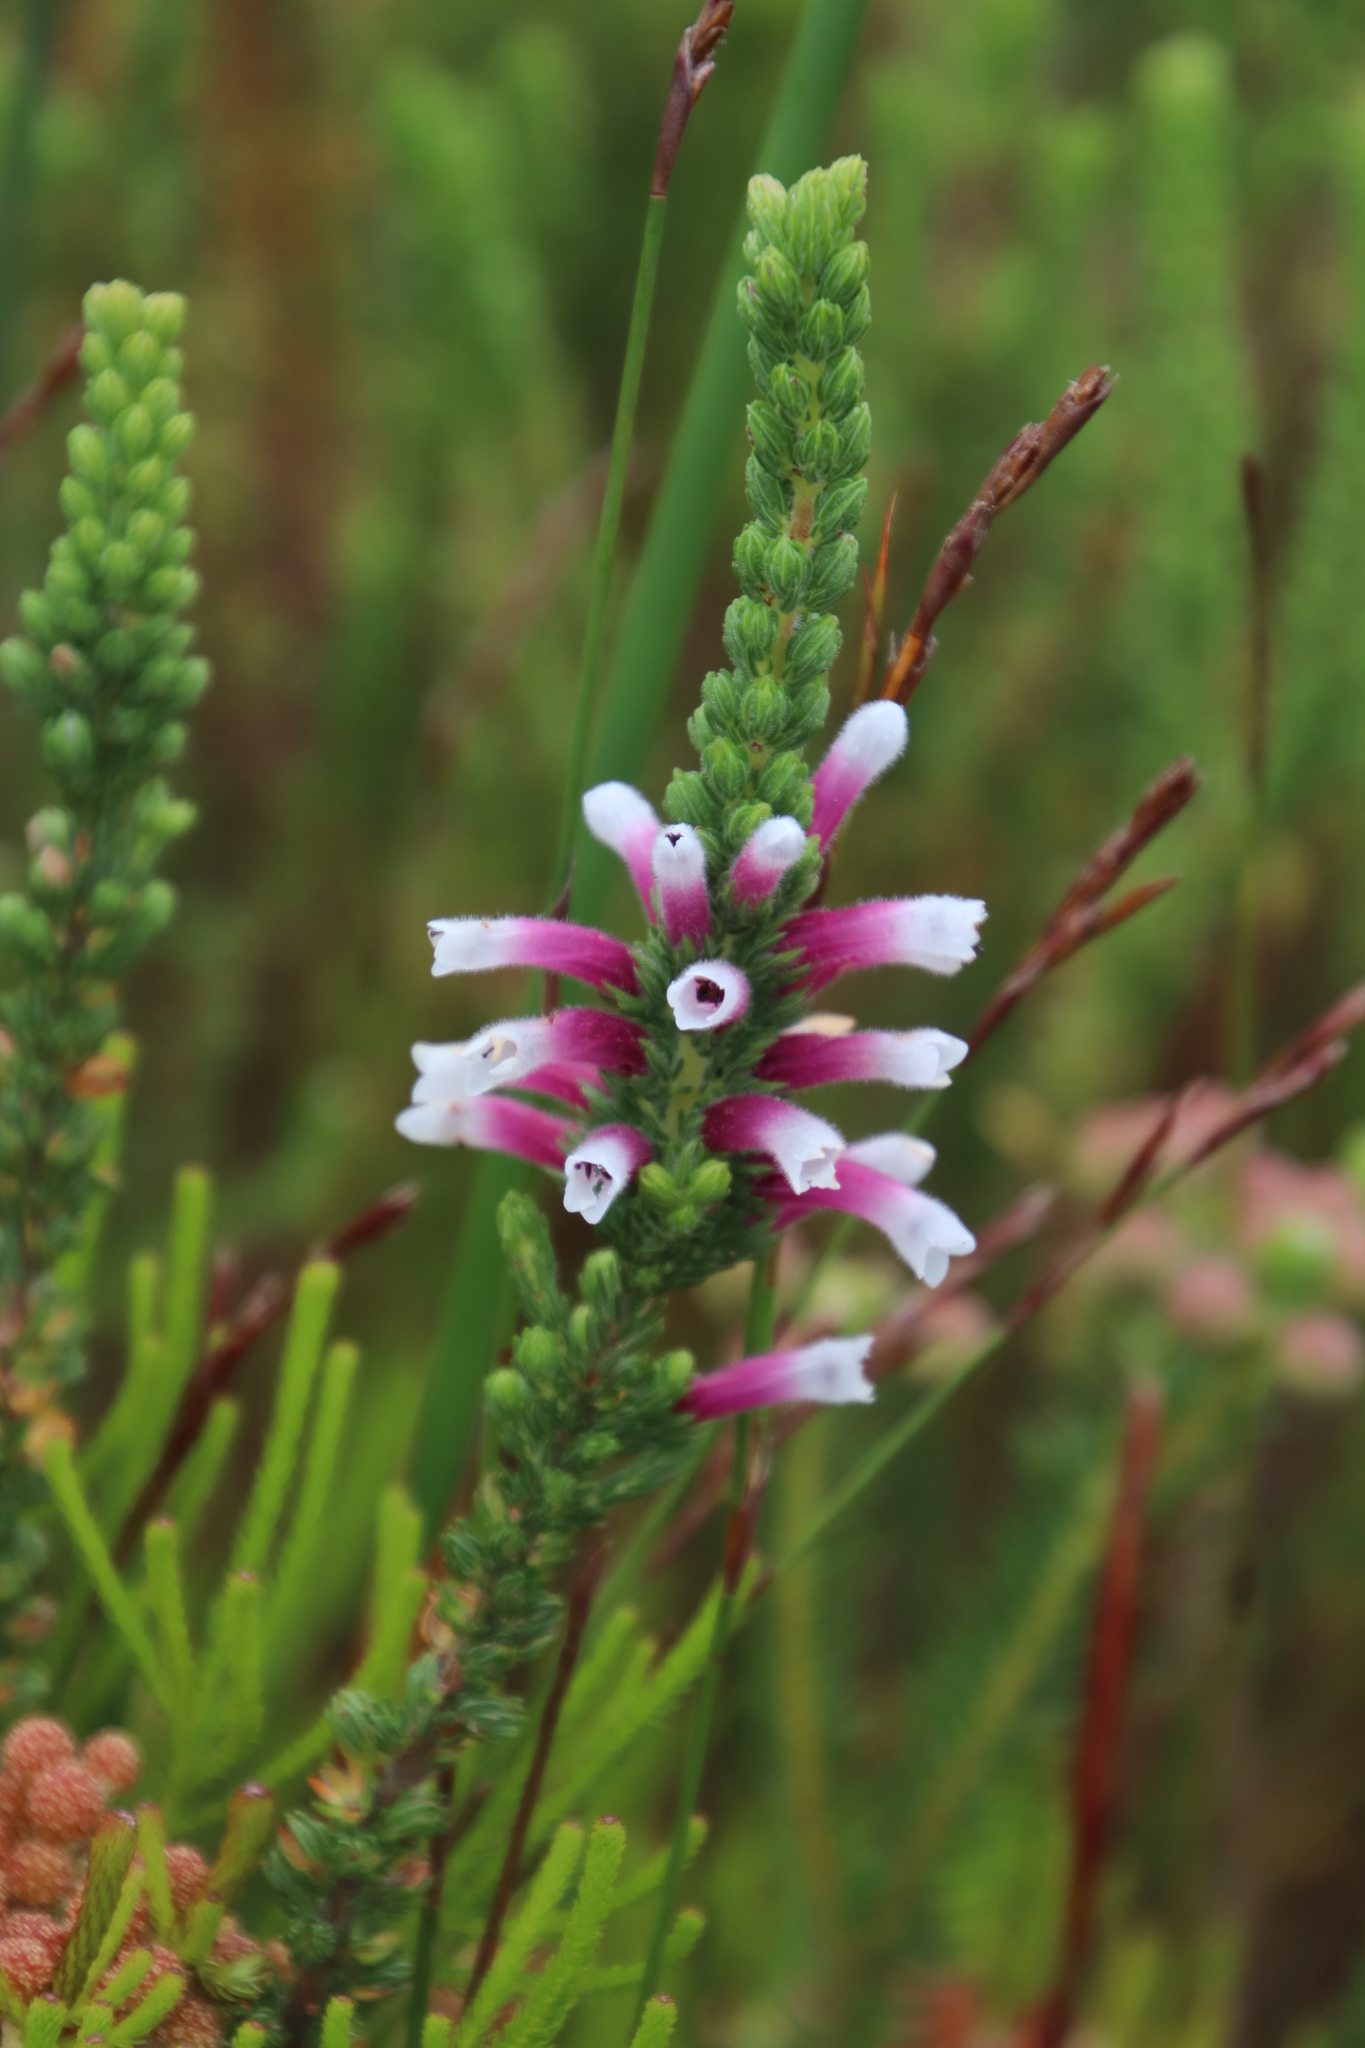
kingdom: Plantae
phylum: Tracheophyta
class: Magnoliopsida
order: Ericales
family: Ericaceae
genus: Erica
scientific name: Erica macowanii
